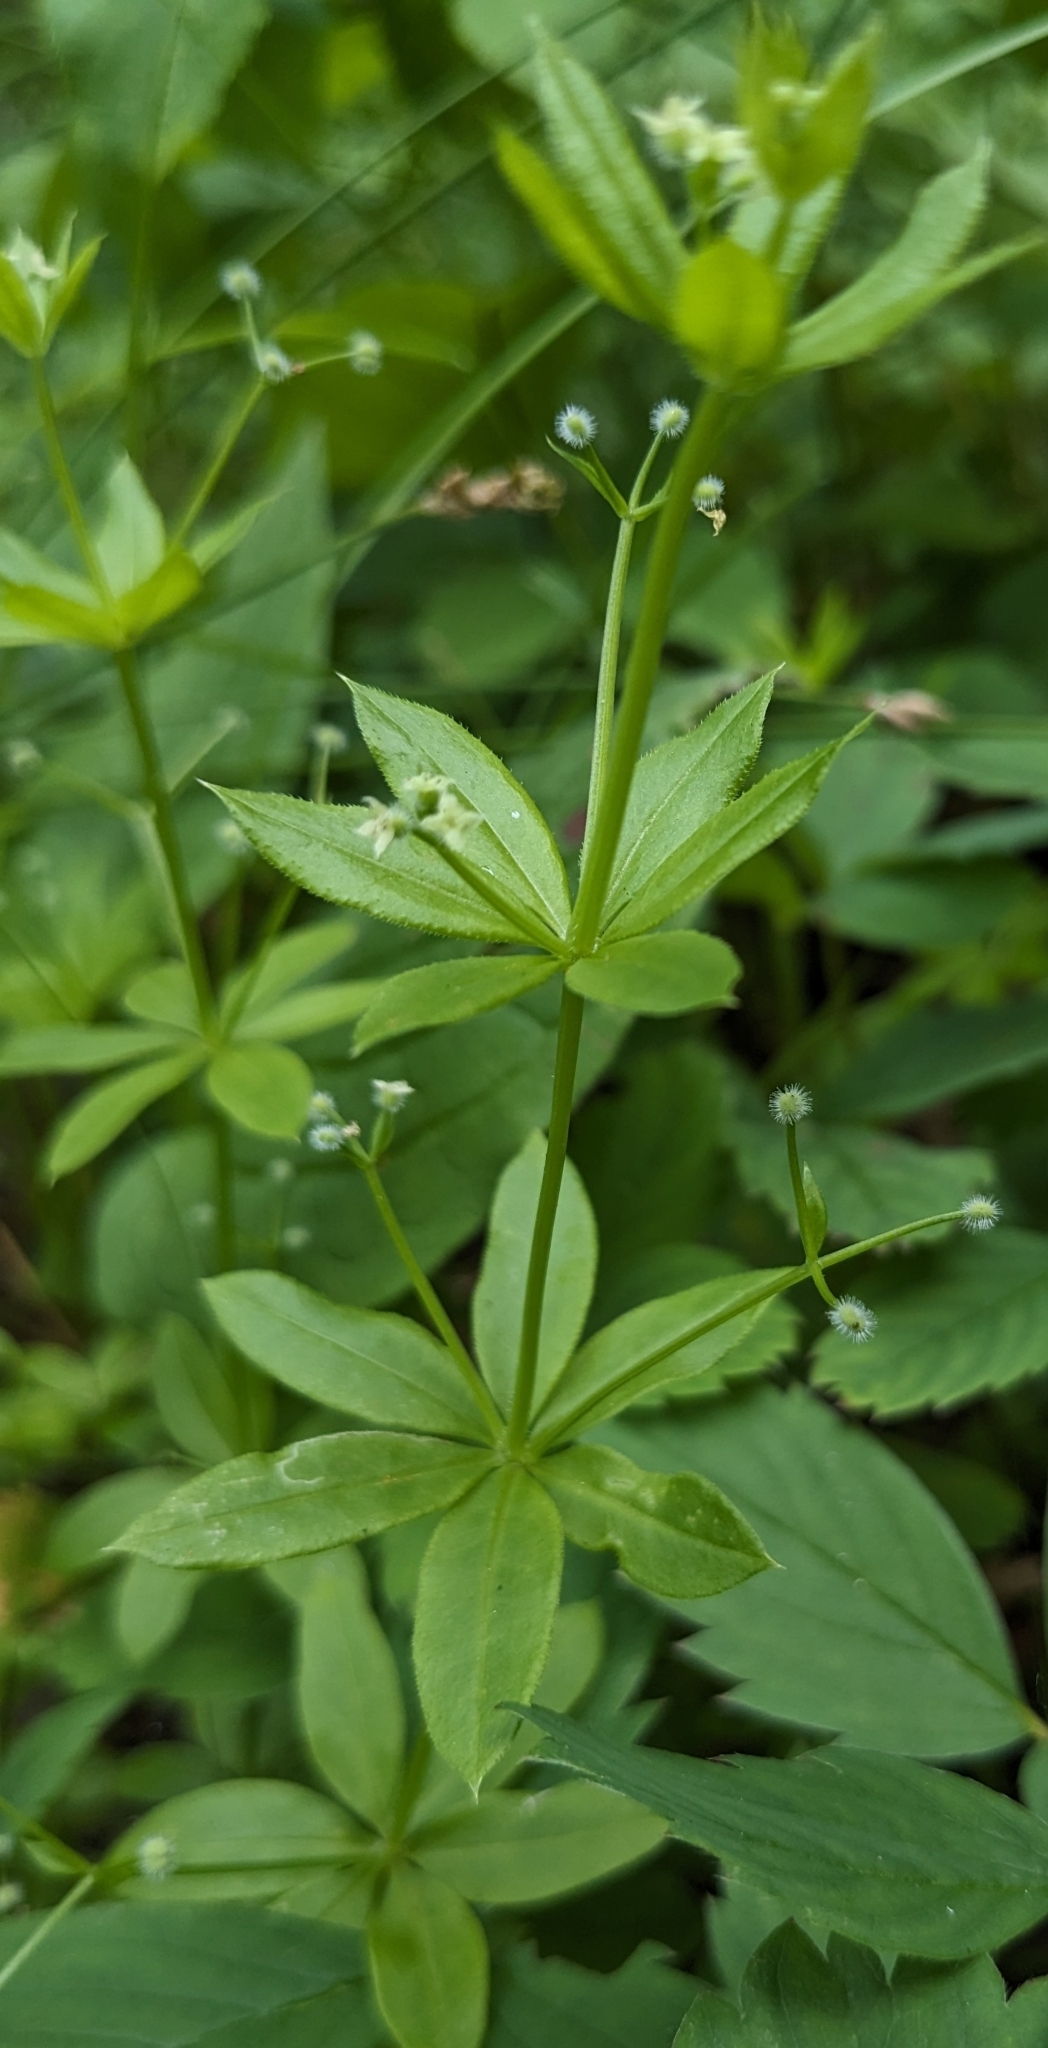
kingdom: Plantae
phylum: Tracheophyta
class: Magnoliopsida
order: Gentianales
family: Rubiaceae
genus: Galium
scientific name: Galium triflorum
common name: Fragrant bedstraw
